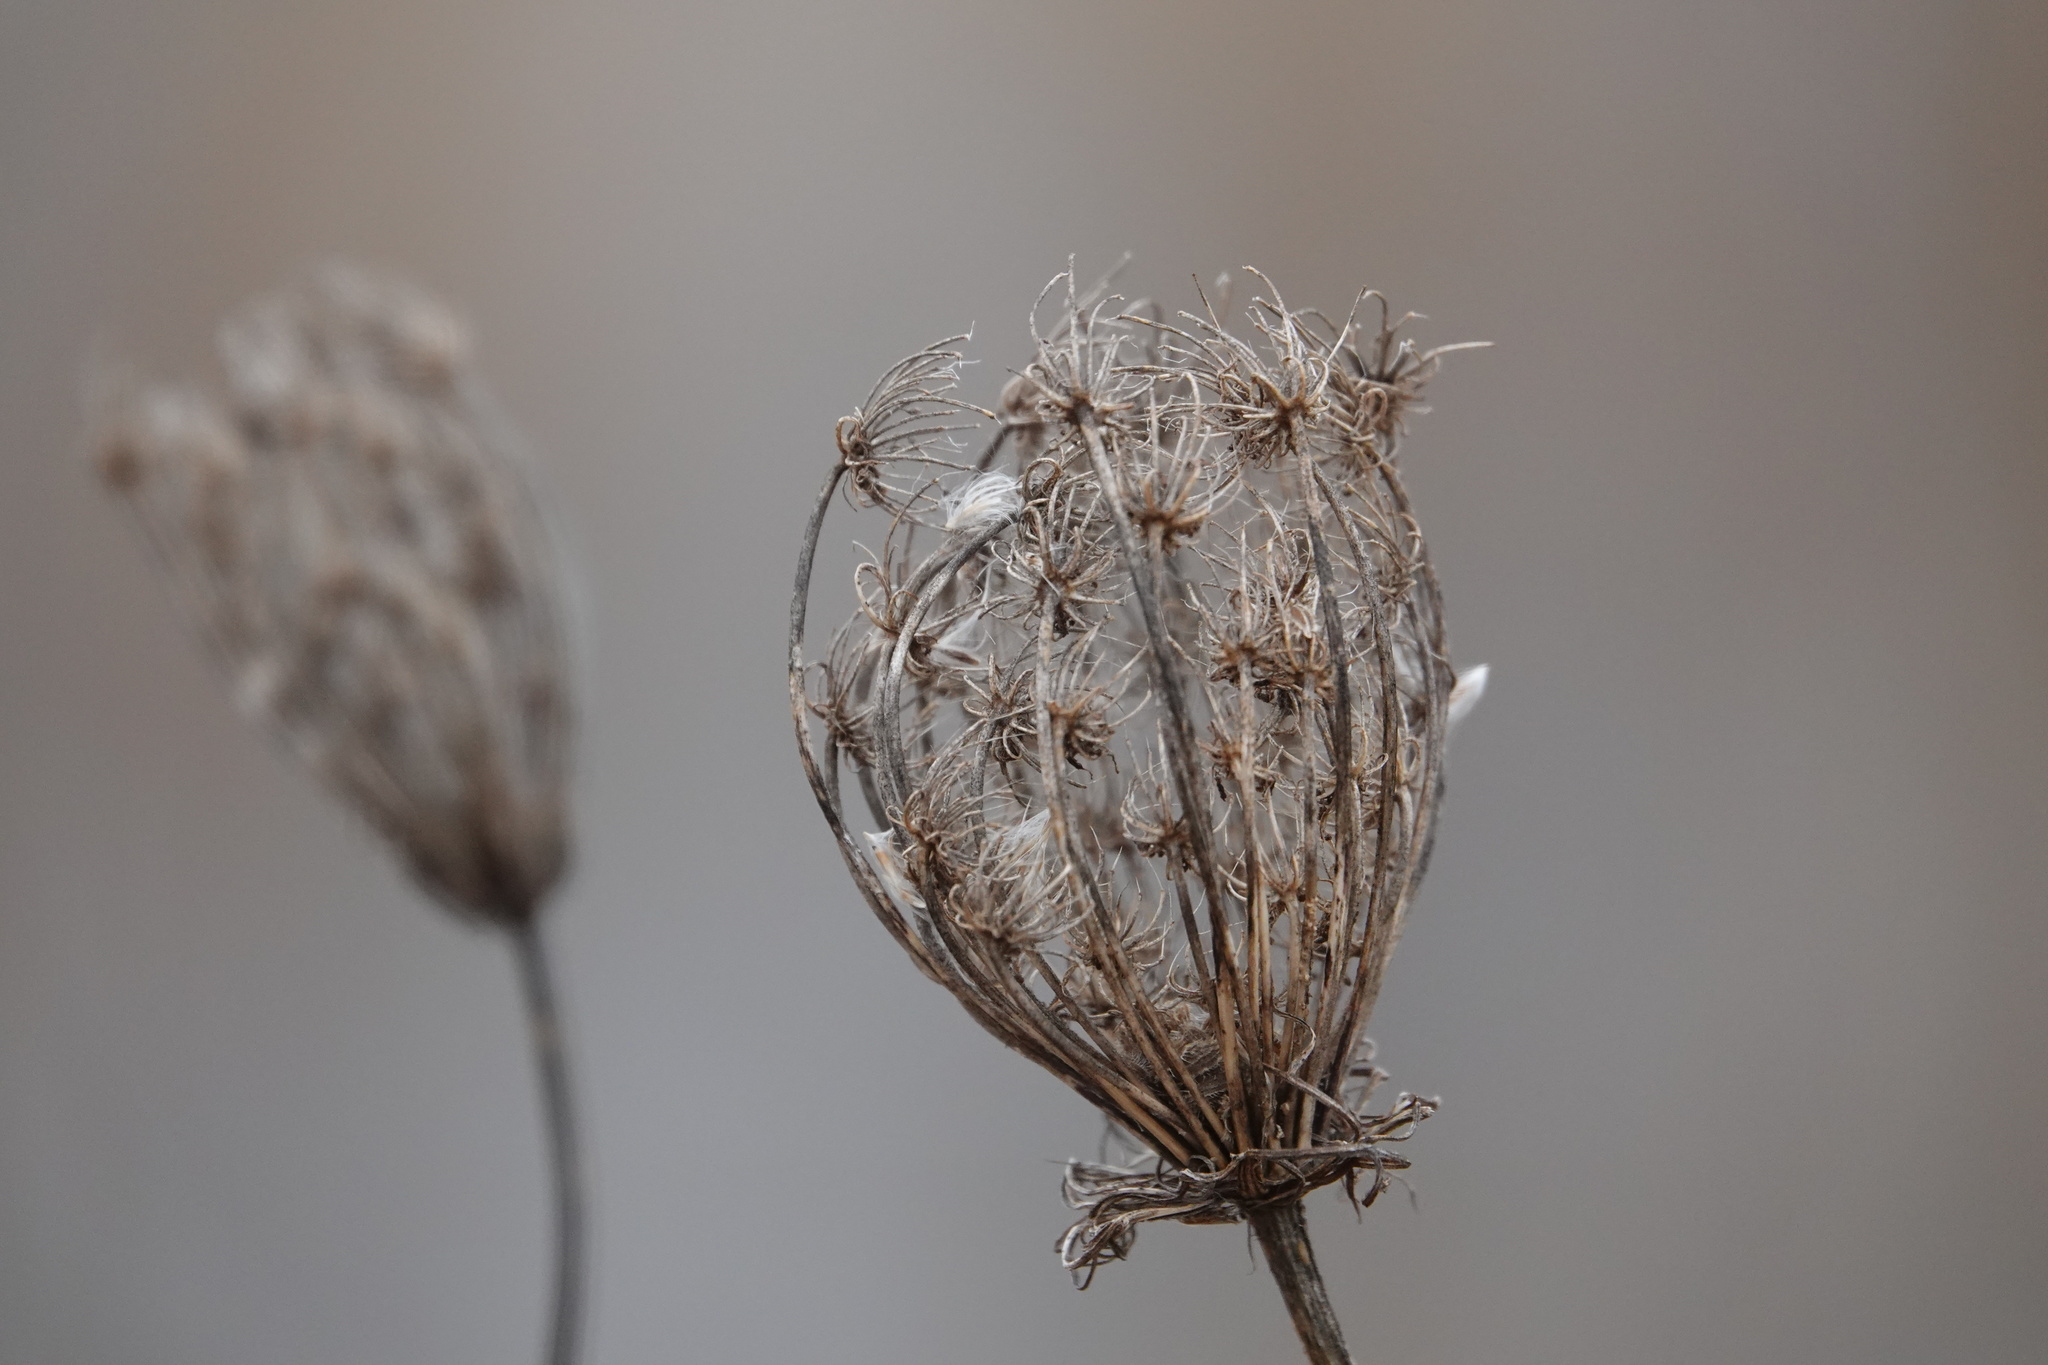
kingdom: Plantae
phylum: Tracheophyta
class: Magnoliopsida
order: Apiales
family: Apiaceae
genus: Daucus
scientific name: Daucus carota
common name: Wild carrot
